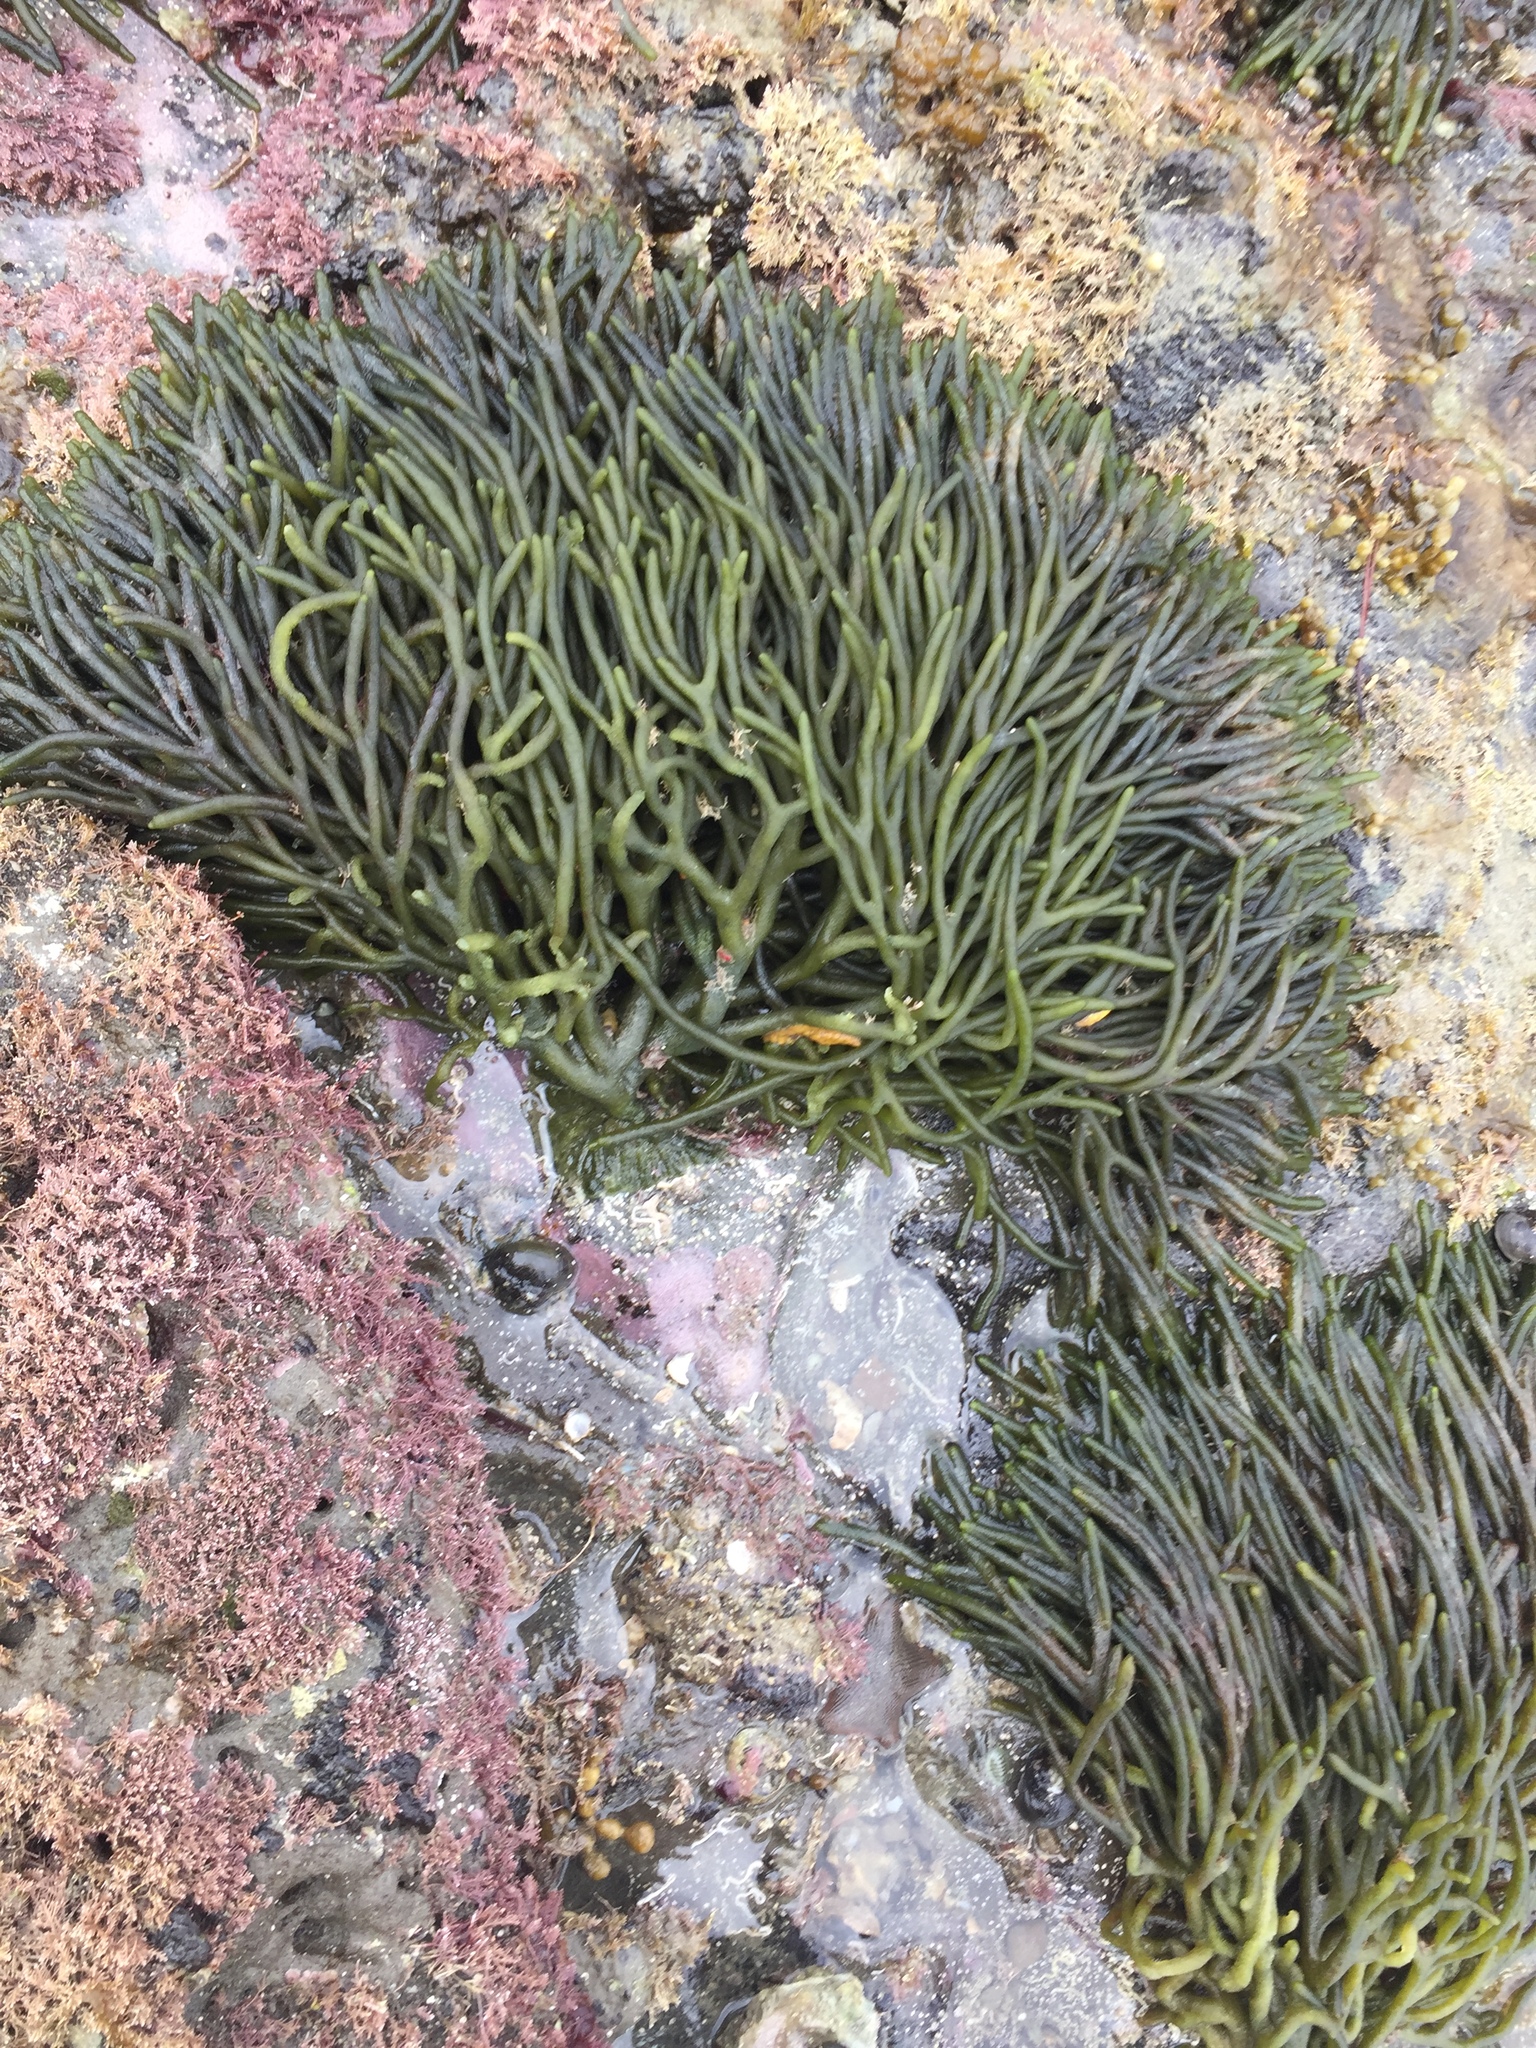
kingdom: Plantae
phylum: Chlorophyta
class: Ulvophyceae
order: Bryopsidales
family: Codiaceae
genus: Codium
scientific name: Codium fragile
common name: Dead man's fingers
